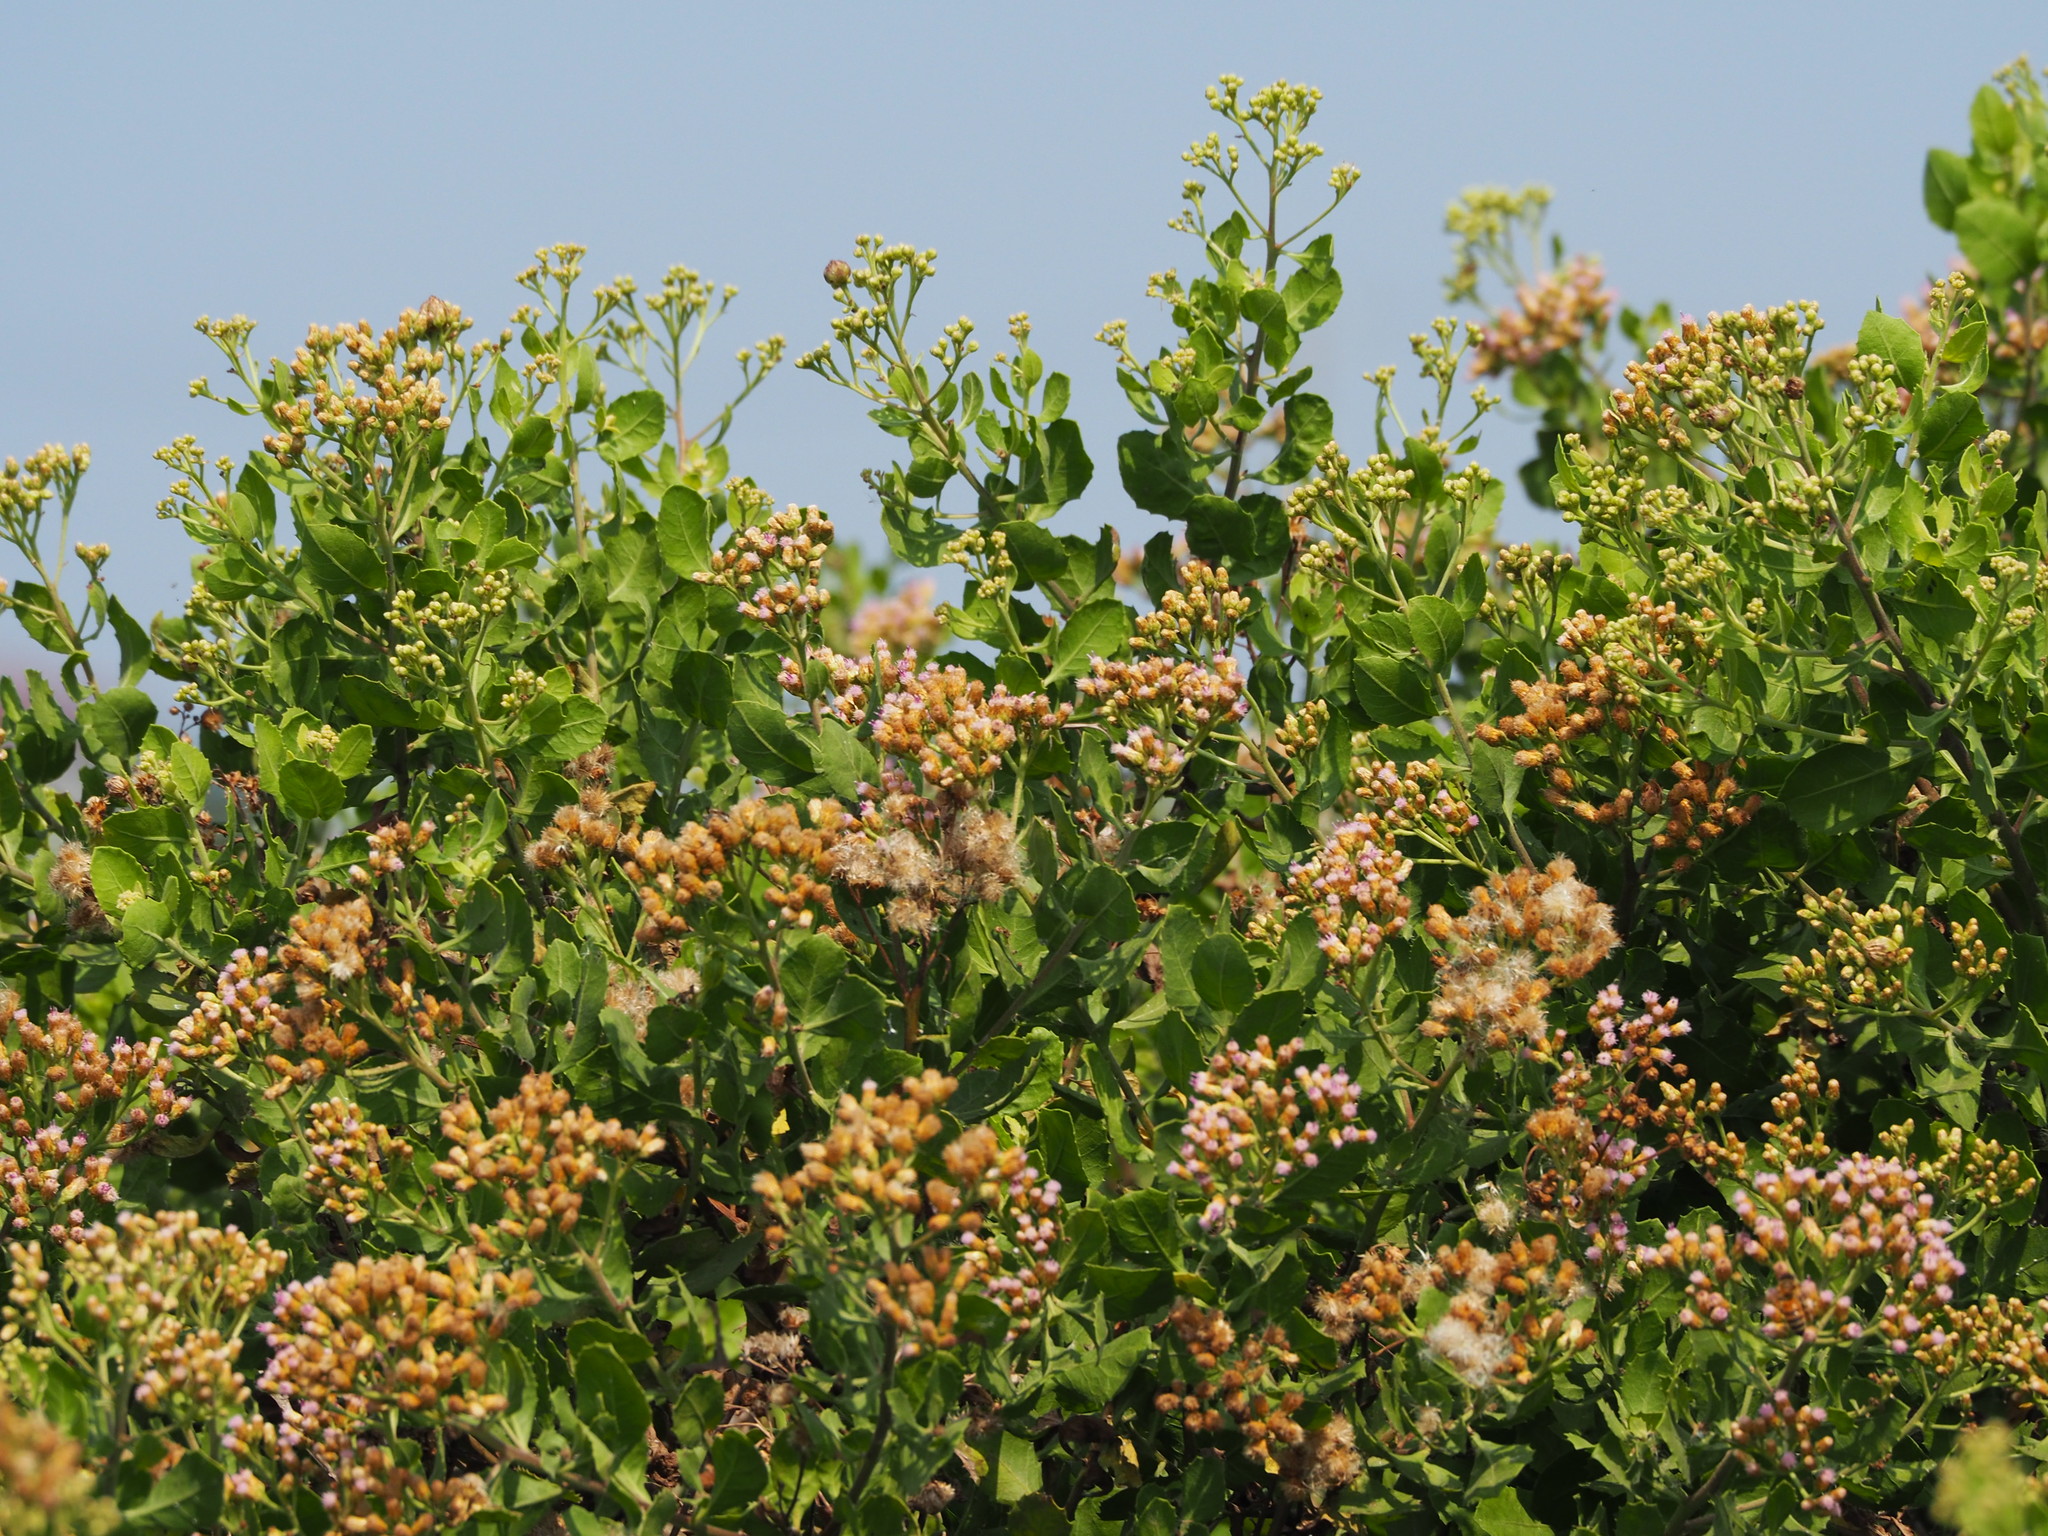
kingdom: Plantae
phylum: Tracheophyta
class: Magnoliopsida
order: Asterales
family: Asteraceae
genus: Pluchea
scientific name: Pluchea indica
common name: Indian fleabane
